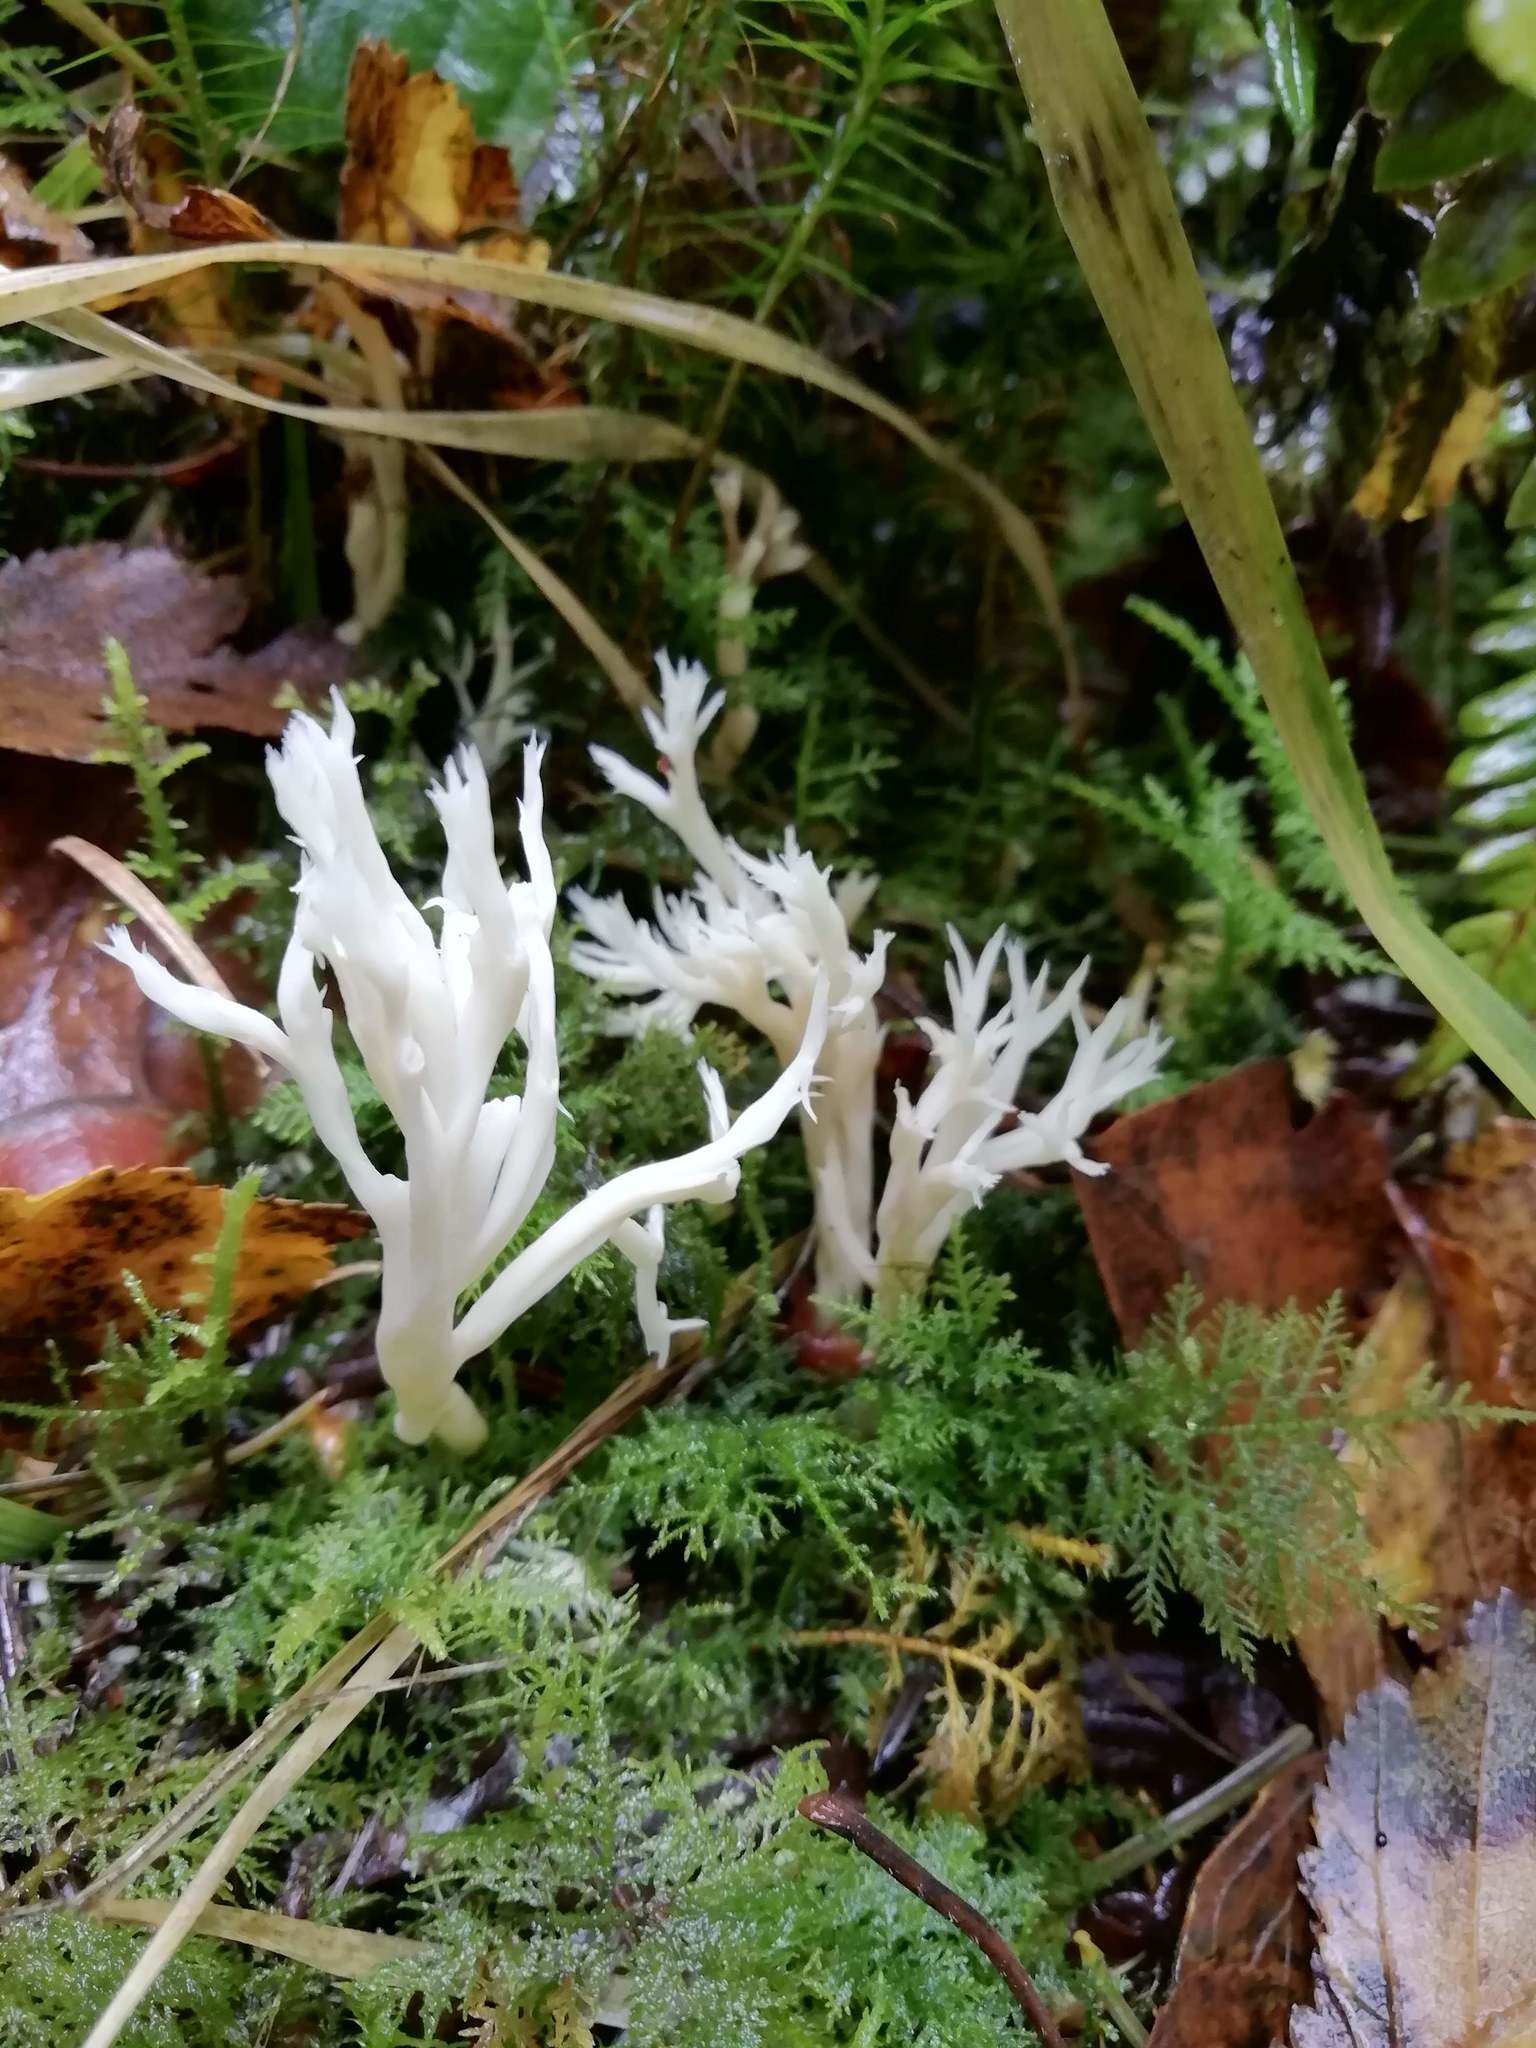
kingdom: Fungi
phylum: Basidiomycota
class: Agaricomycetes
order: Cantharellales
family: Hydnaceae
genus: Clavulina
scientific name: Clavulina coralloides
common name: Crested coral
